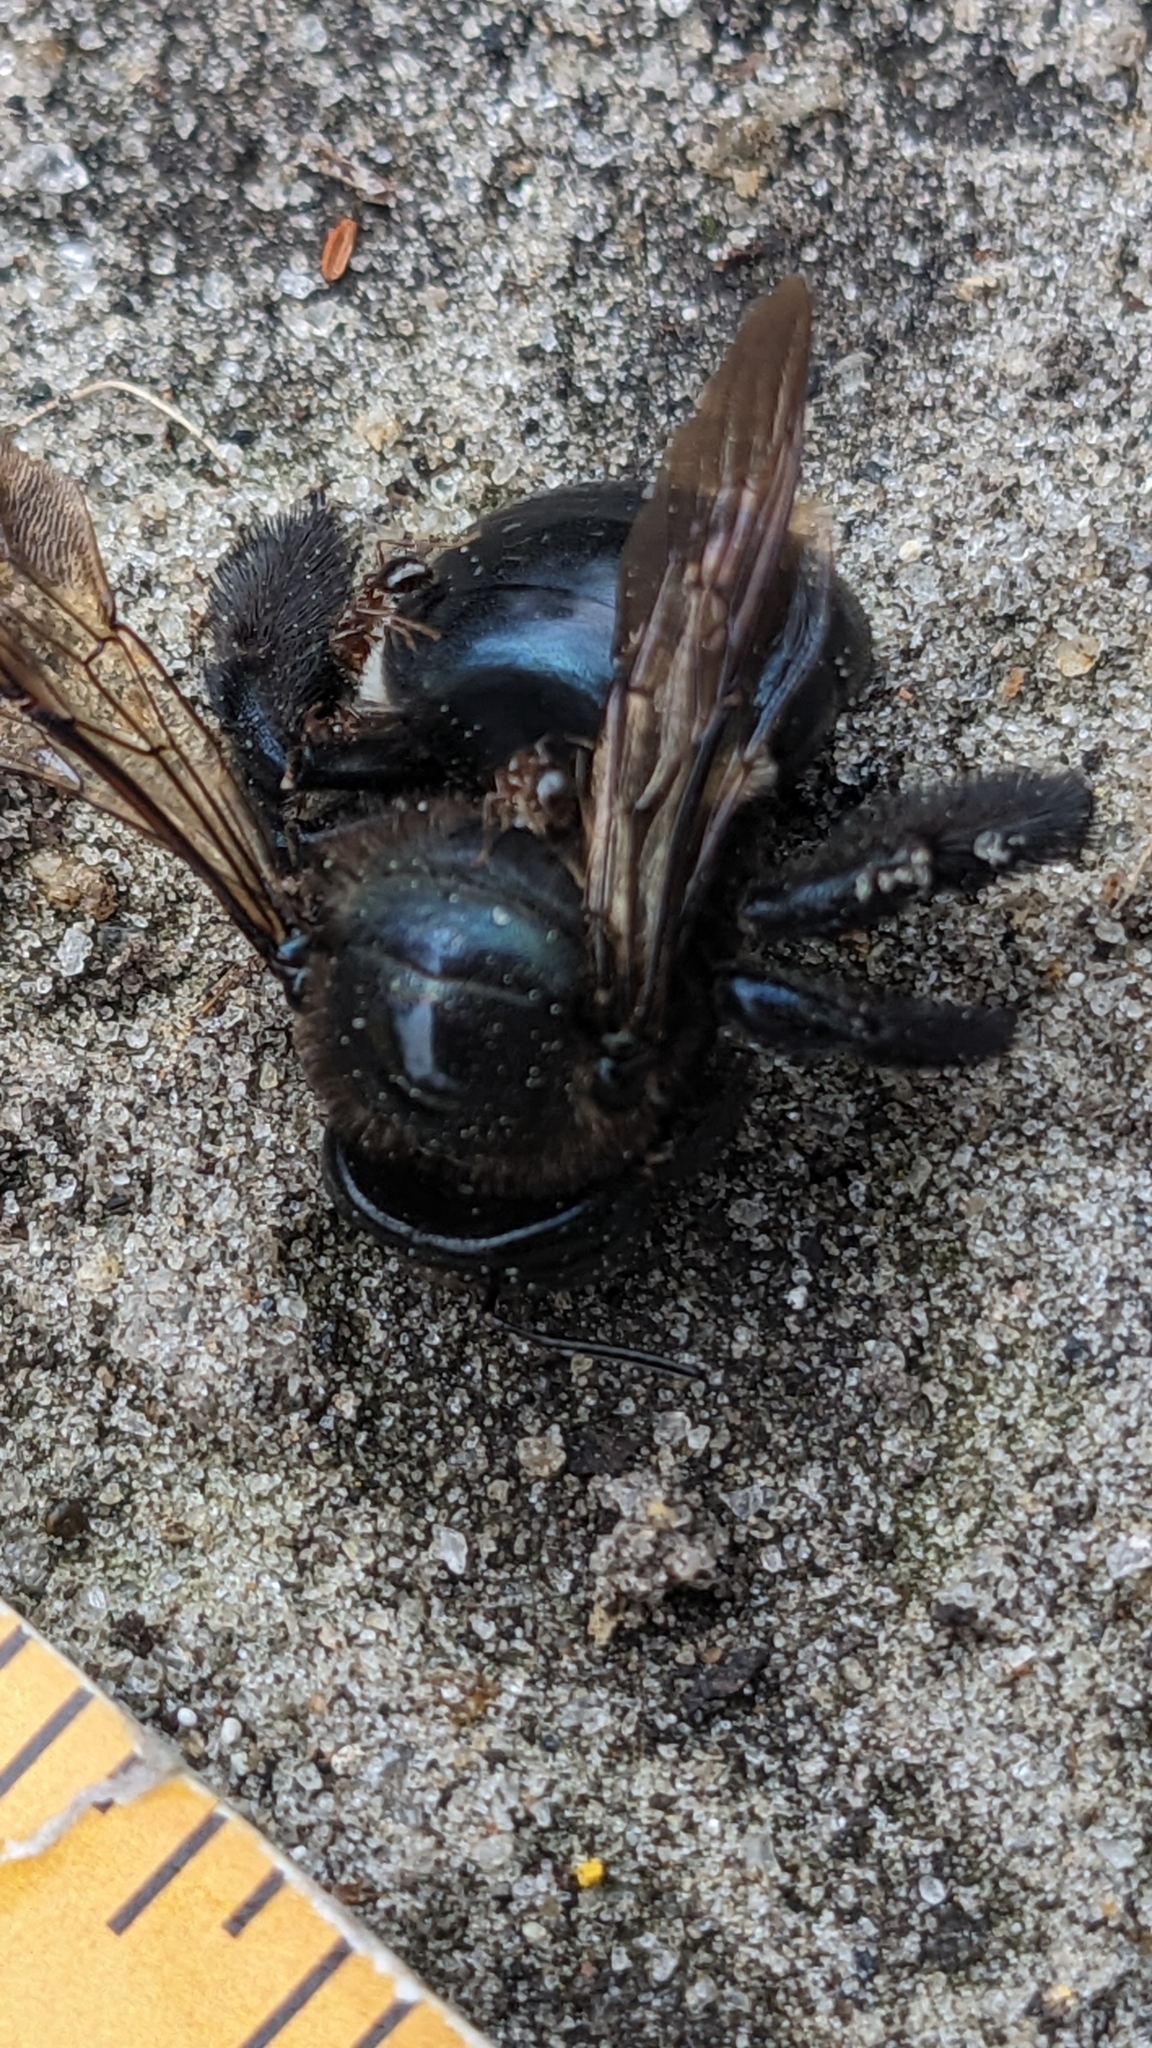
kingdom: Animalia
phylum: Arthropoda
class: Insecta
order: Hymenoptera
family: Apidae
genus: Xylocopa
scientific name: Xylocopa micans
